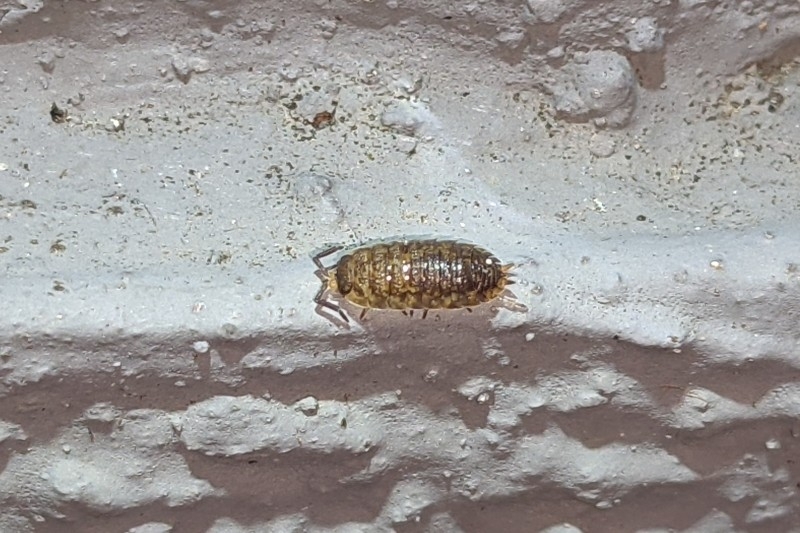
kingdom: Animalia
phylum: Arthropoda
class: Malacostraca
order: Isopoda
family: Porcellionidae
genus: Porcellio
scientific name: Porcellio scaber
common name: Common rough woodlouse
